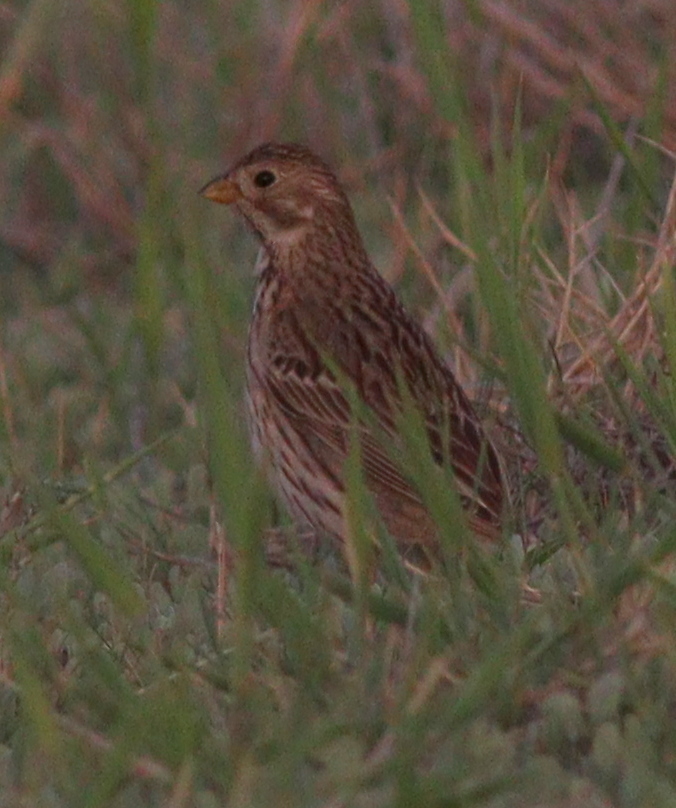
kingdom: Animalia
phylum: Chordata
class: Aves
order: Passeriformes
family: Emberizidae
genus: Emberiza
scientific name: Emberiza calandra
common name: Corn bunting
